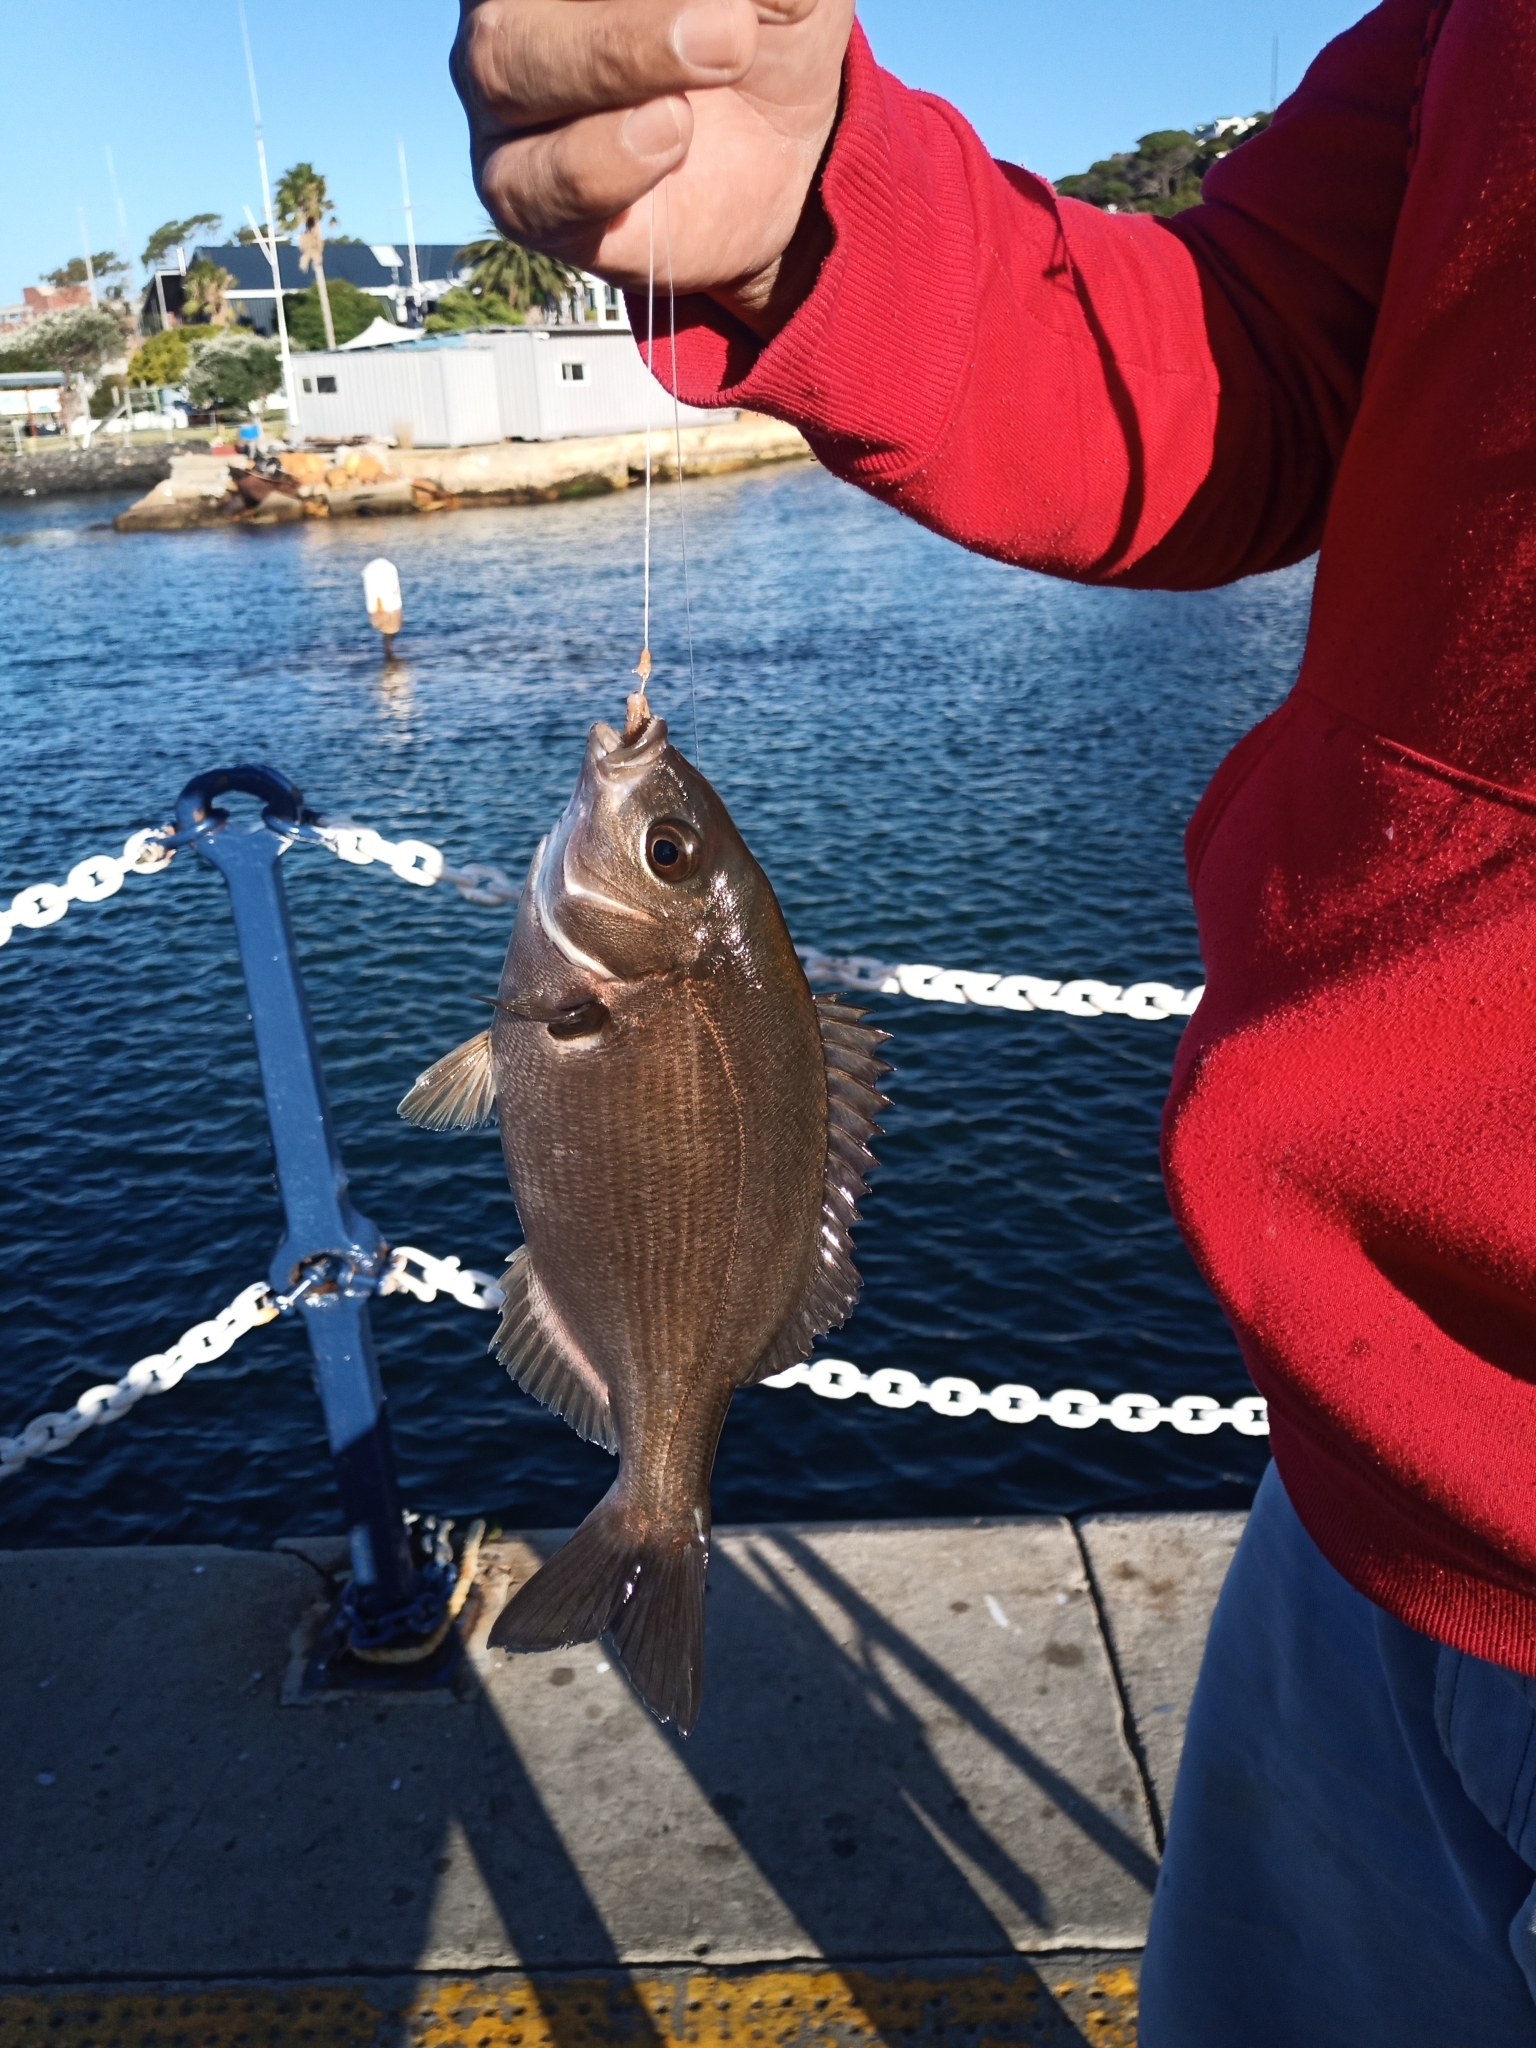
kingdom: Animalia
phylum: Chordata
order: Perciformes
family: Sparidae
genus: Pachymetopon
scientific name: Pachymetopon blochii
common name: Hottentot
